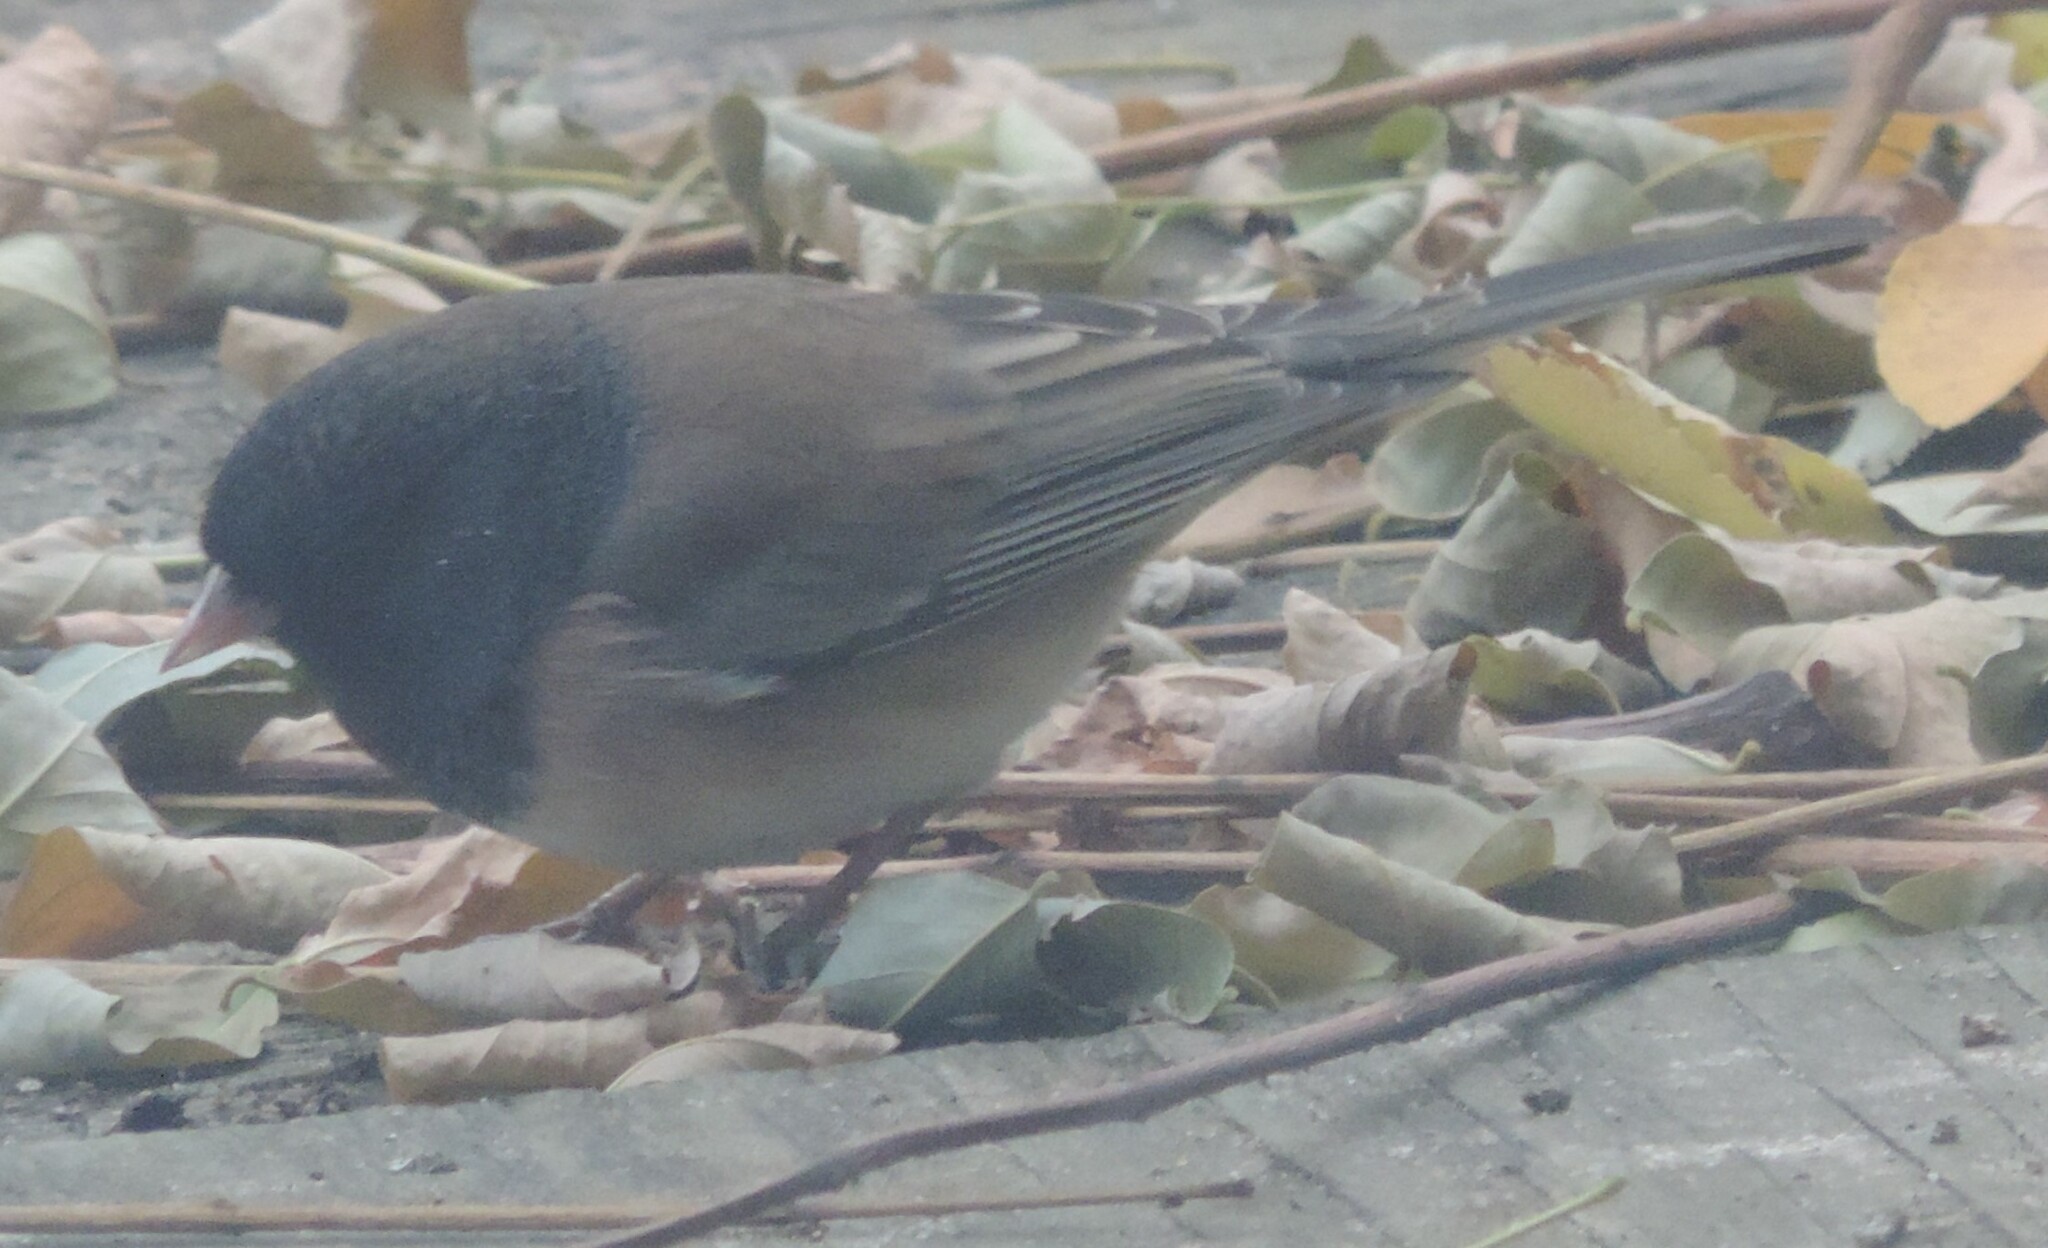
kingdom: Animalia
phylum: Chordata
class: Aves
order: Passeriformes
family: Passerellidae
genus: Junco
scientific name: Junco hyemalis
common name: Dark-eyed junco
